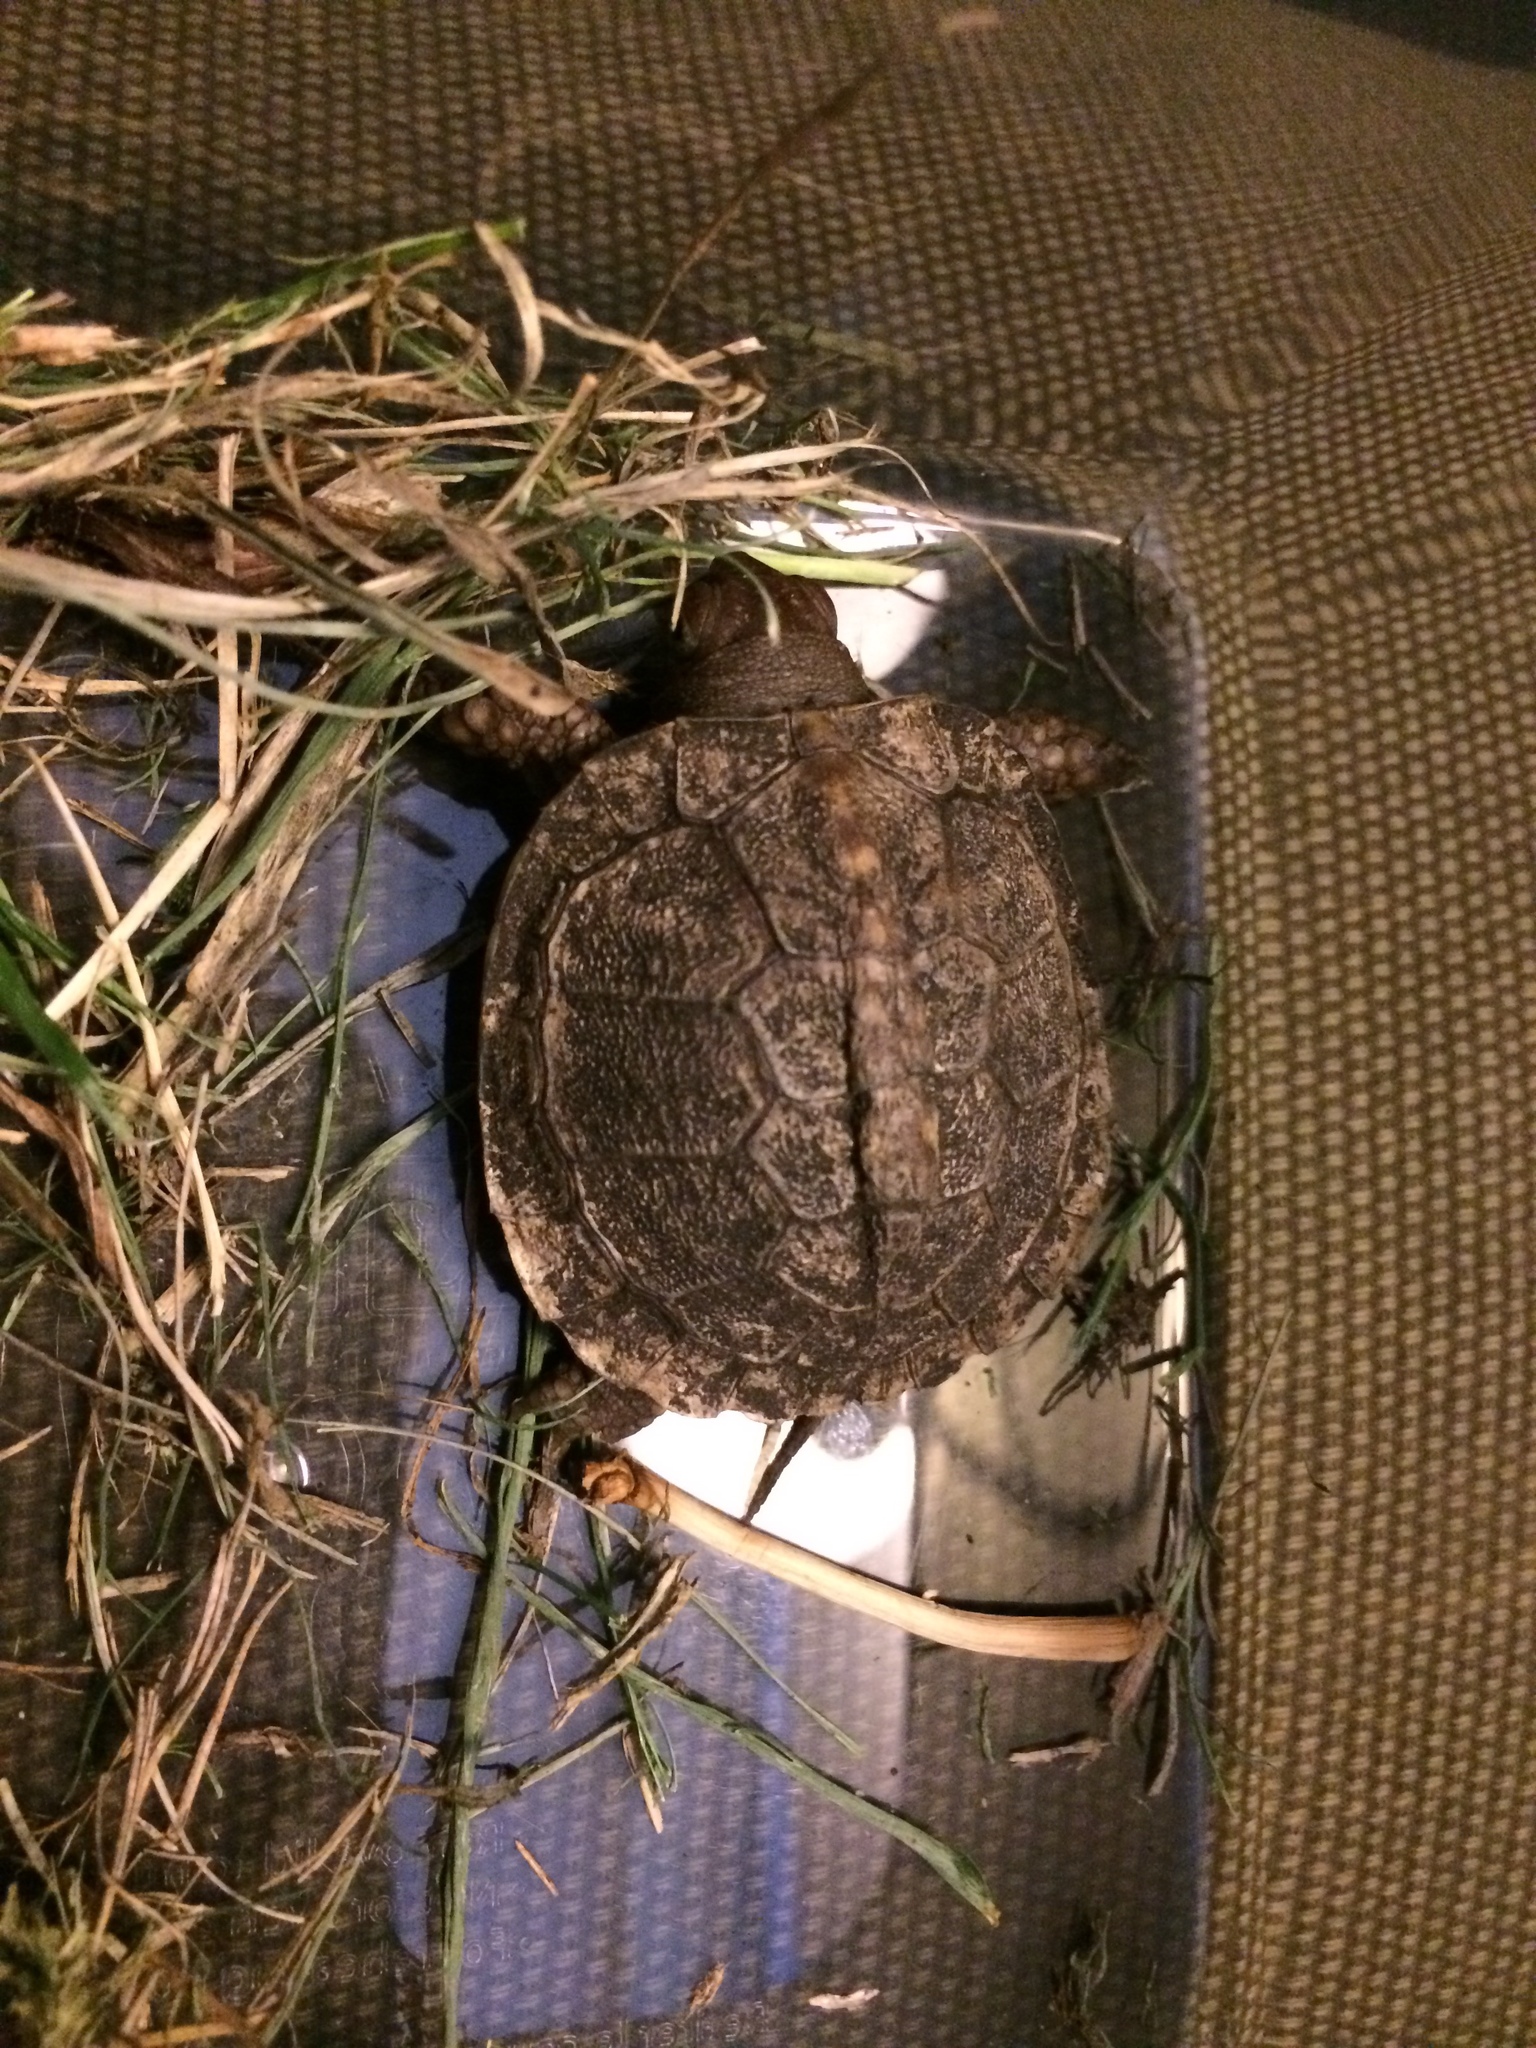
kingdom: Animalia
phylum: Chordata
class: Testudines
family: Emydidae
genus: Terrapene
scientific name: Terrapene carolina
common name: Common box turtle
